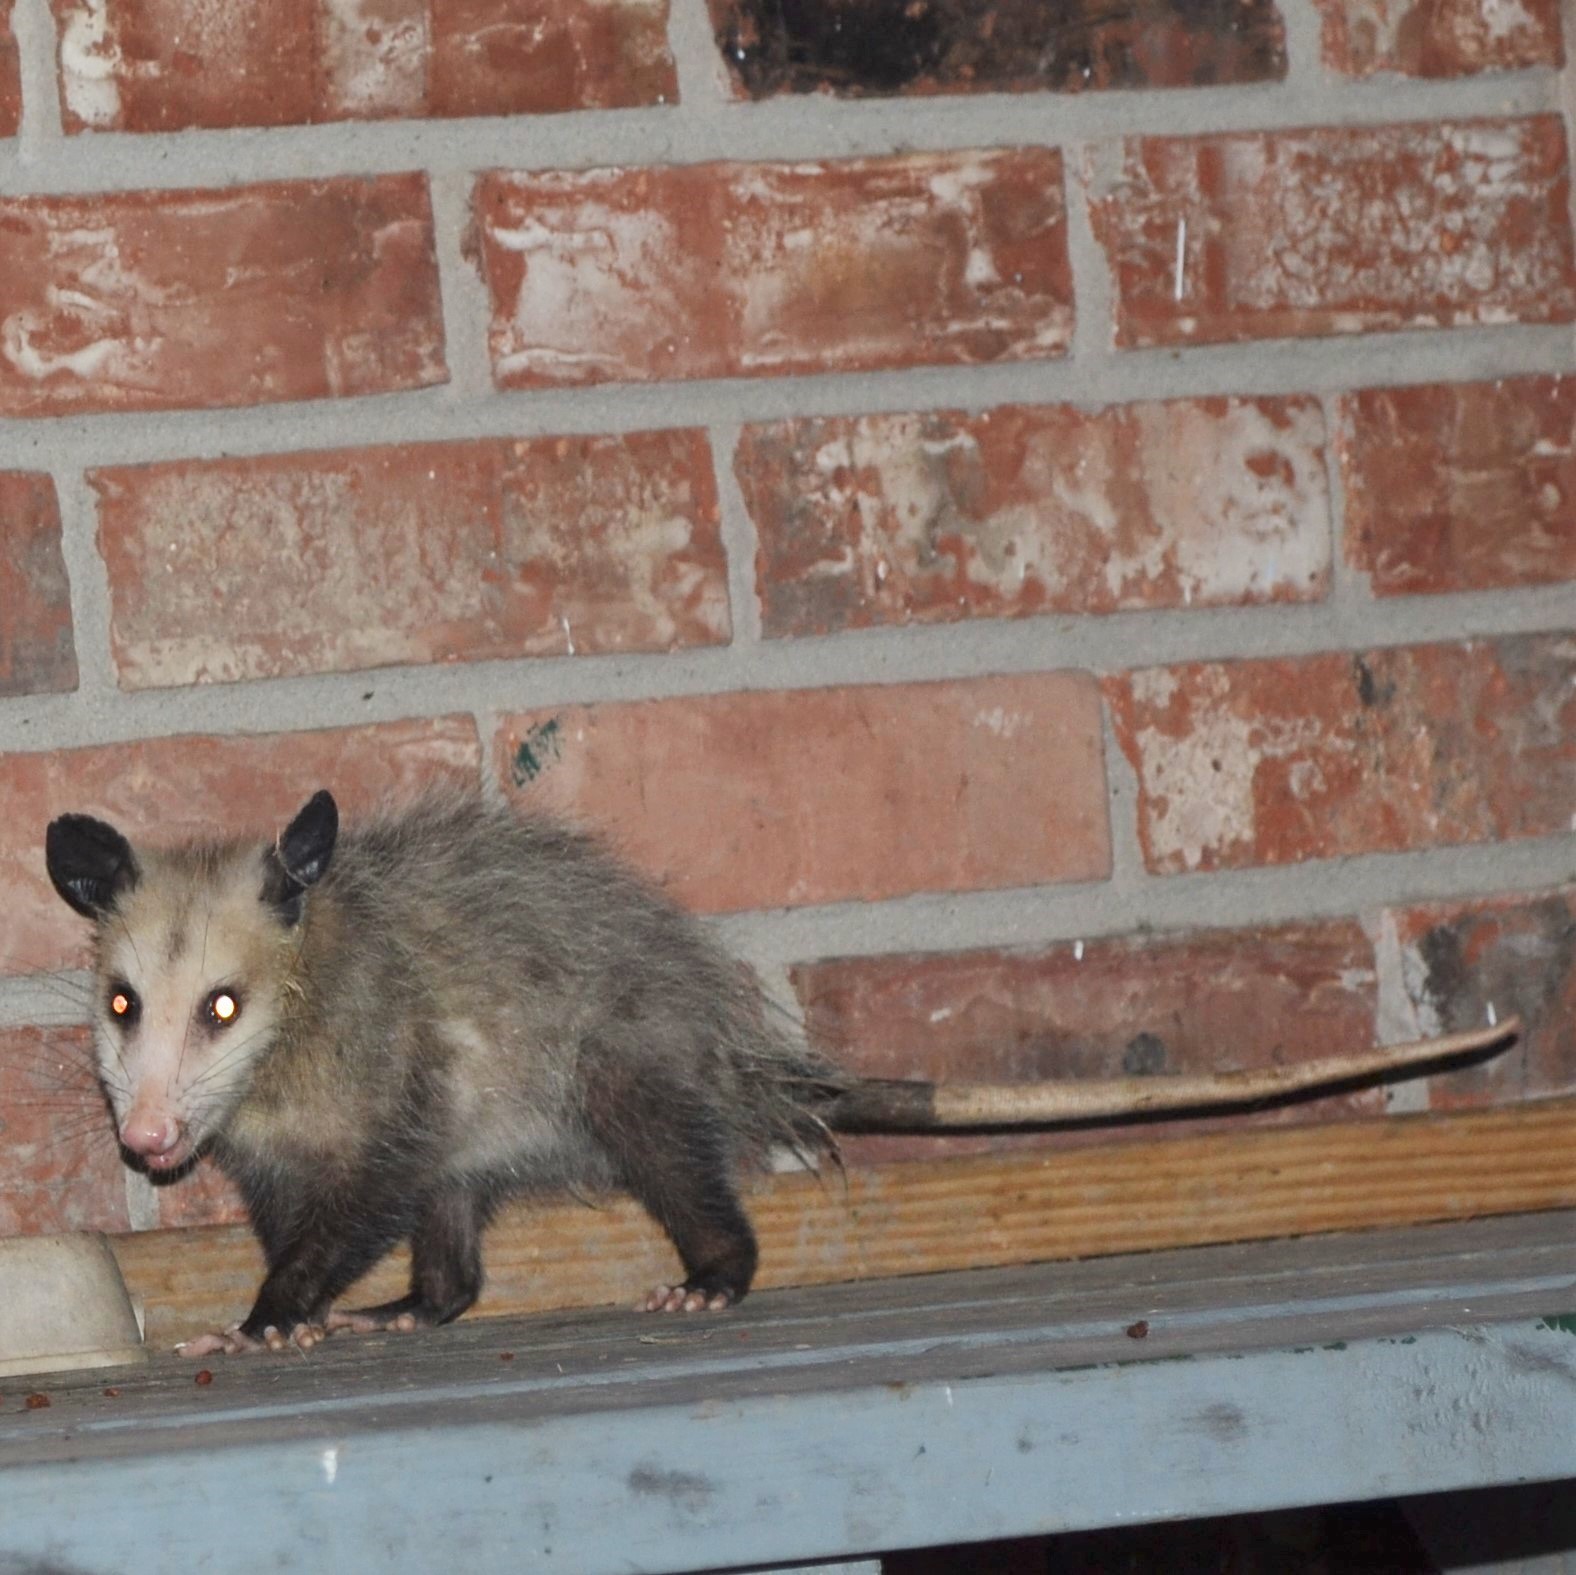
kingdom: Animalia
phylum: Chordata
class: Mammalia
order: Didelphimorphia
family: Didelphidae
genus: Didelphis
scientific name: Didelphis virginiana
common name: Virginia opossum
